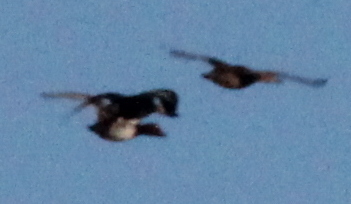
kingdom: Animalia
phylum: Chordata
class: Aves
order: Anseriformes
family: Anatidae
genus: Mareca
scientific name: Mareca strepera
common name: Gadwall
